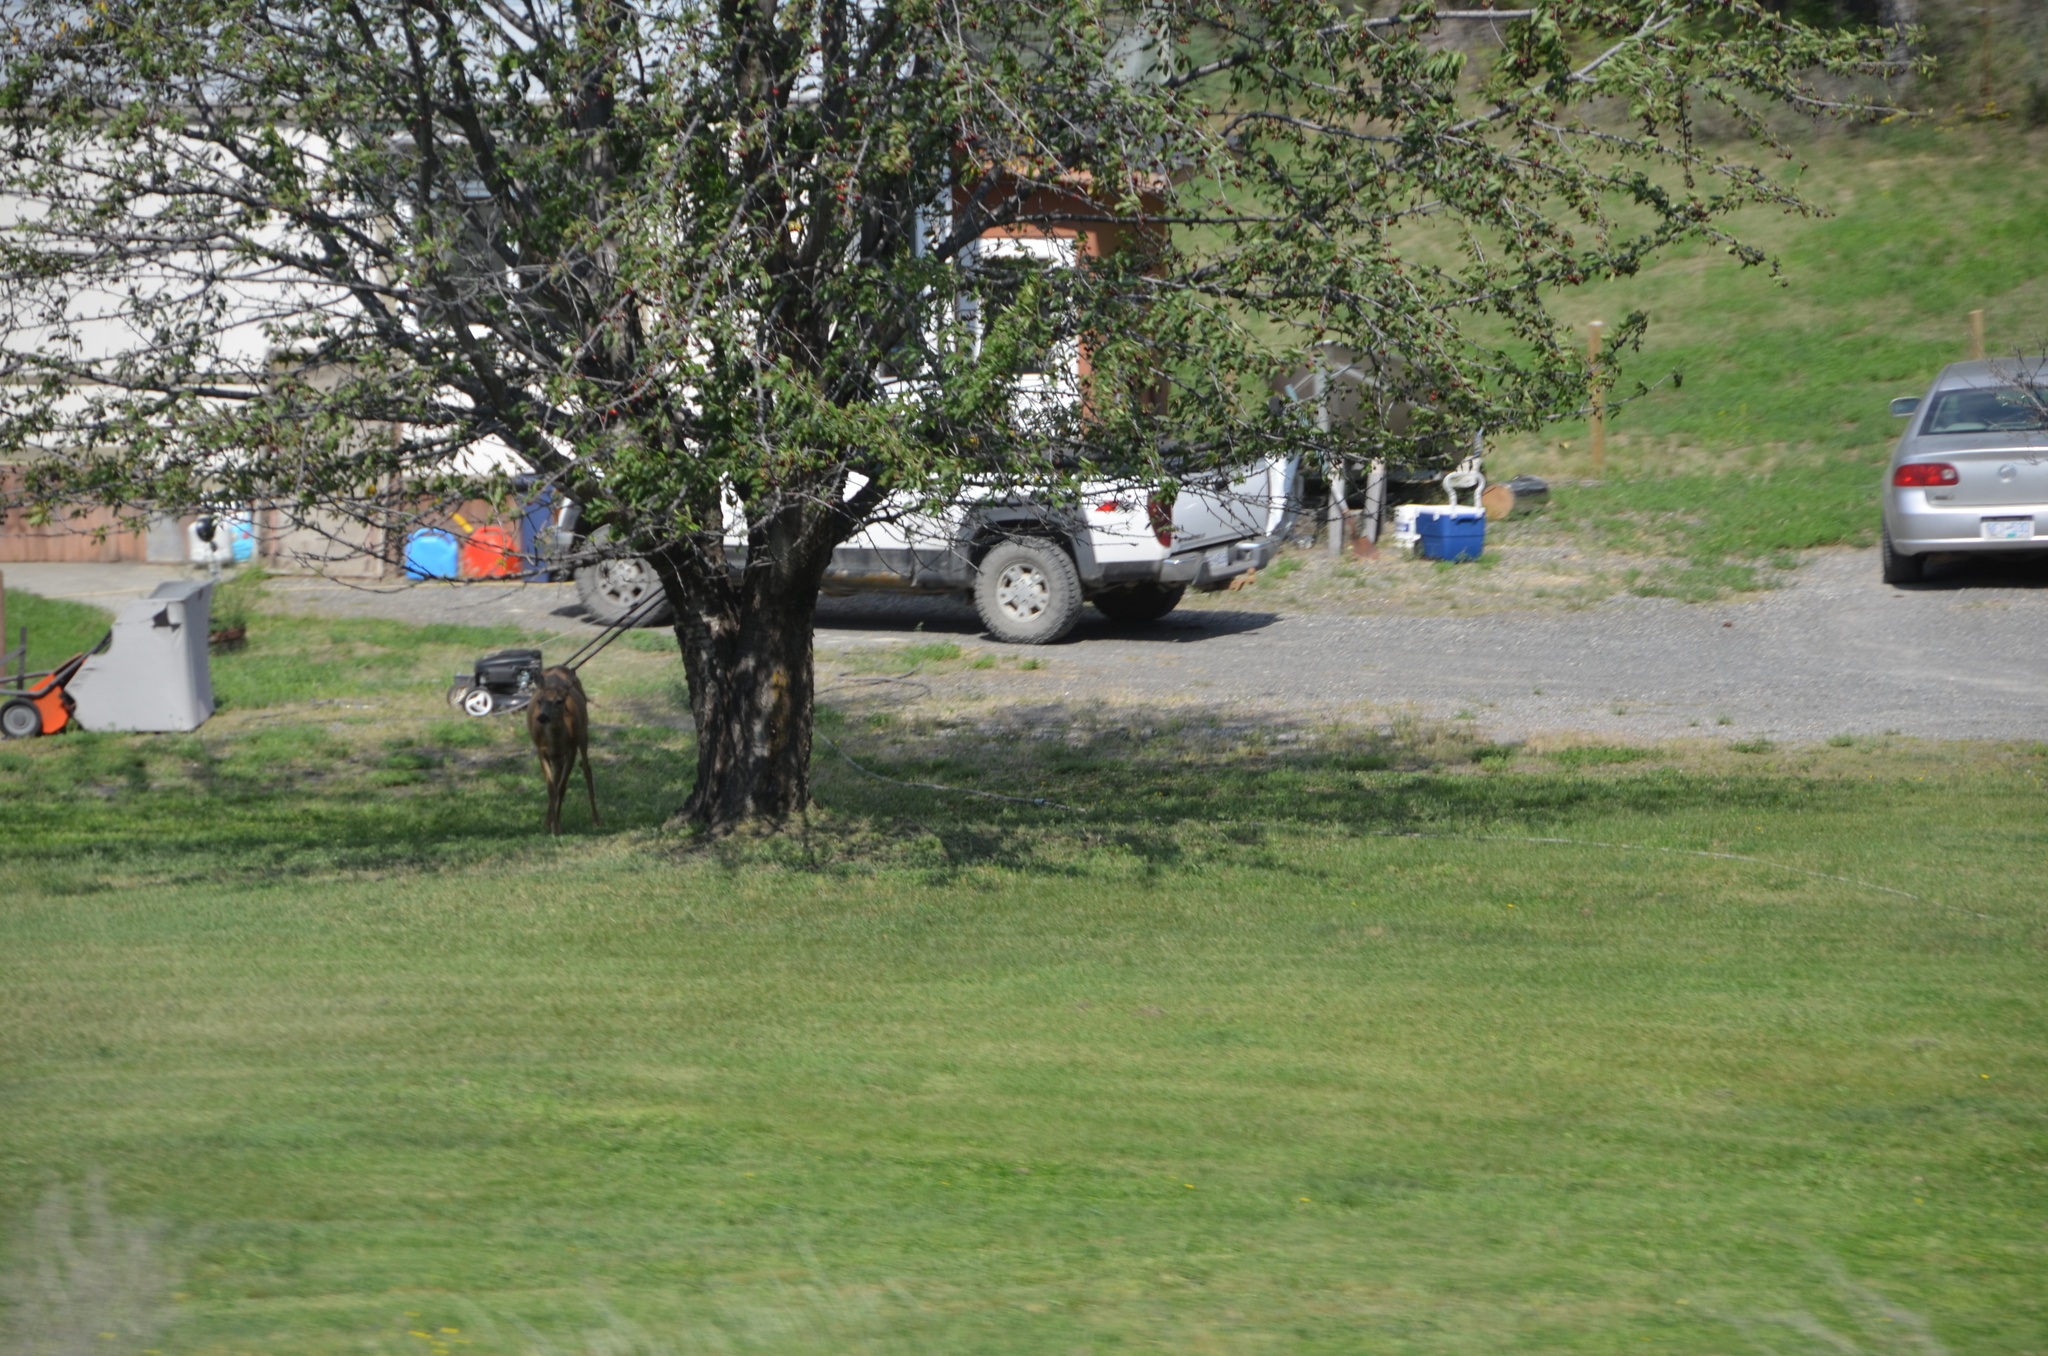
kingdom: Animalia
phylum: Chordata
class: Mammalia
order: Artiodactyla
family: Cervidae
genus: Odocoileus
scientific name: Odocoileus hemionus
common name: Mule deer
